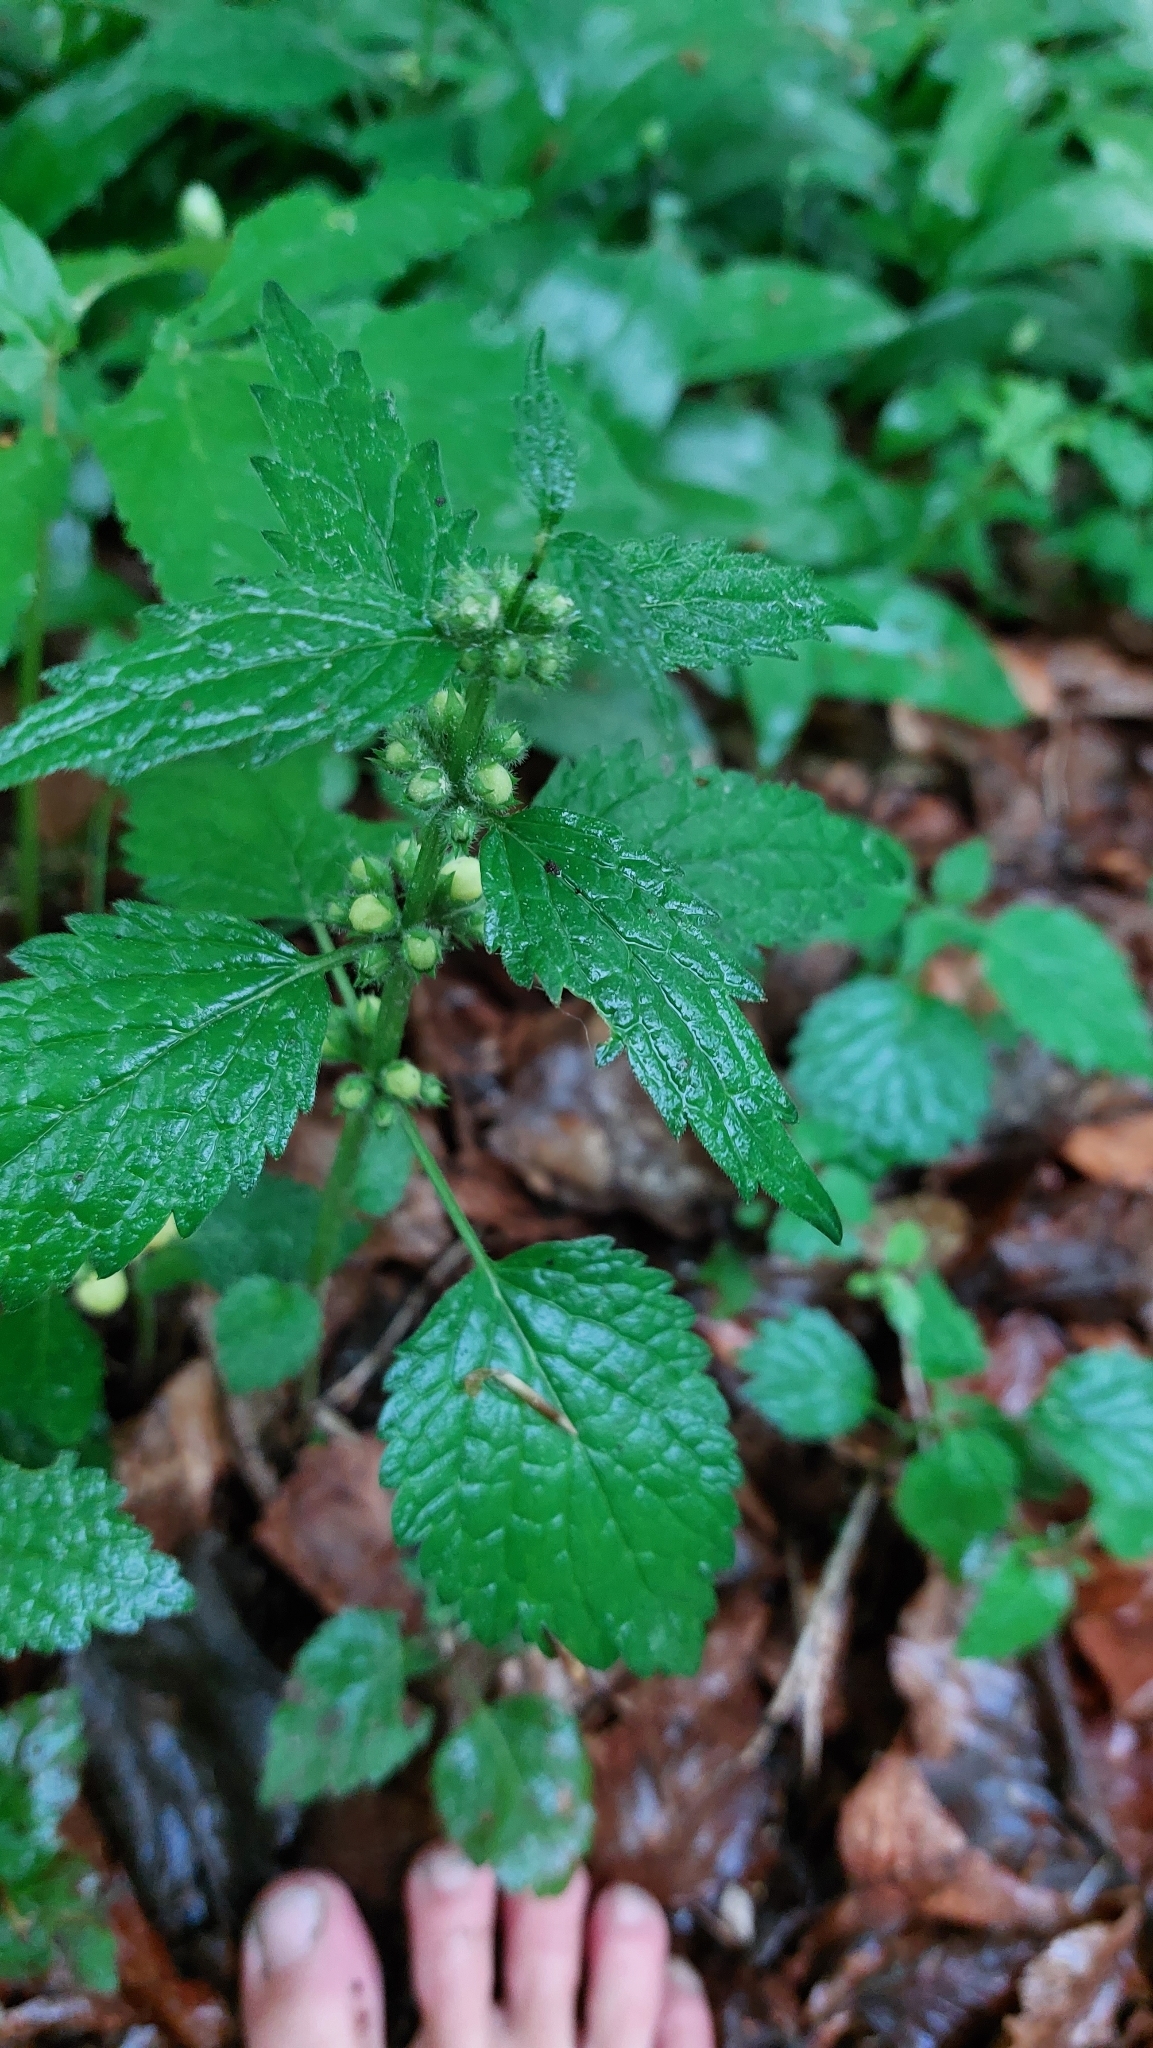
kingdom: Plantae
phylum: Tracheophyta
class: Magnoliopsida
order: Lamiales
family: Lamiaceae
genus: Lamium
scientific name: Lamium galeobdolon
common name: Yellow archangel
